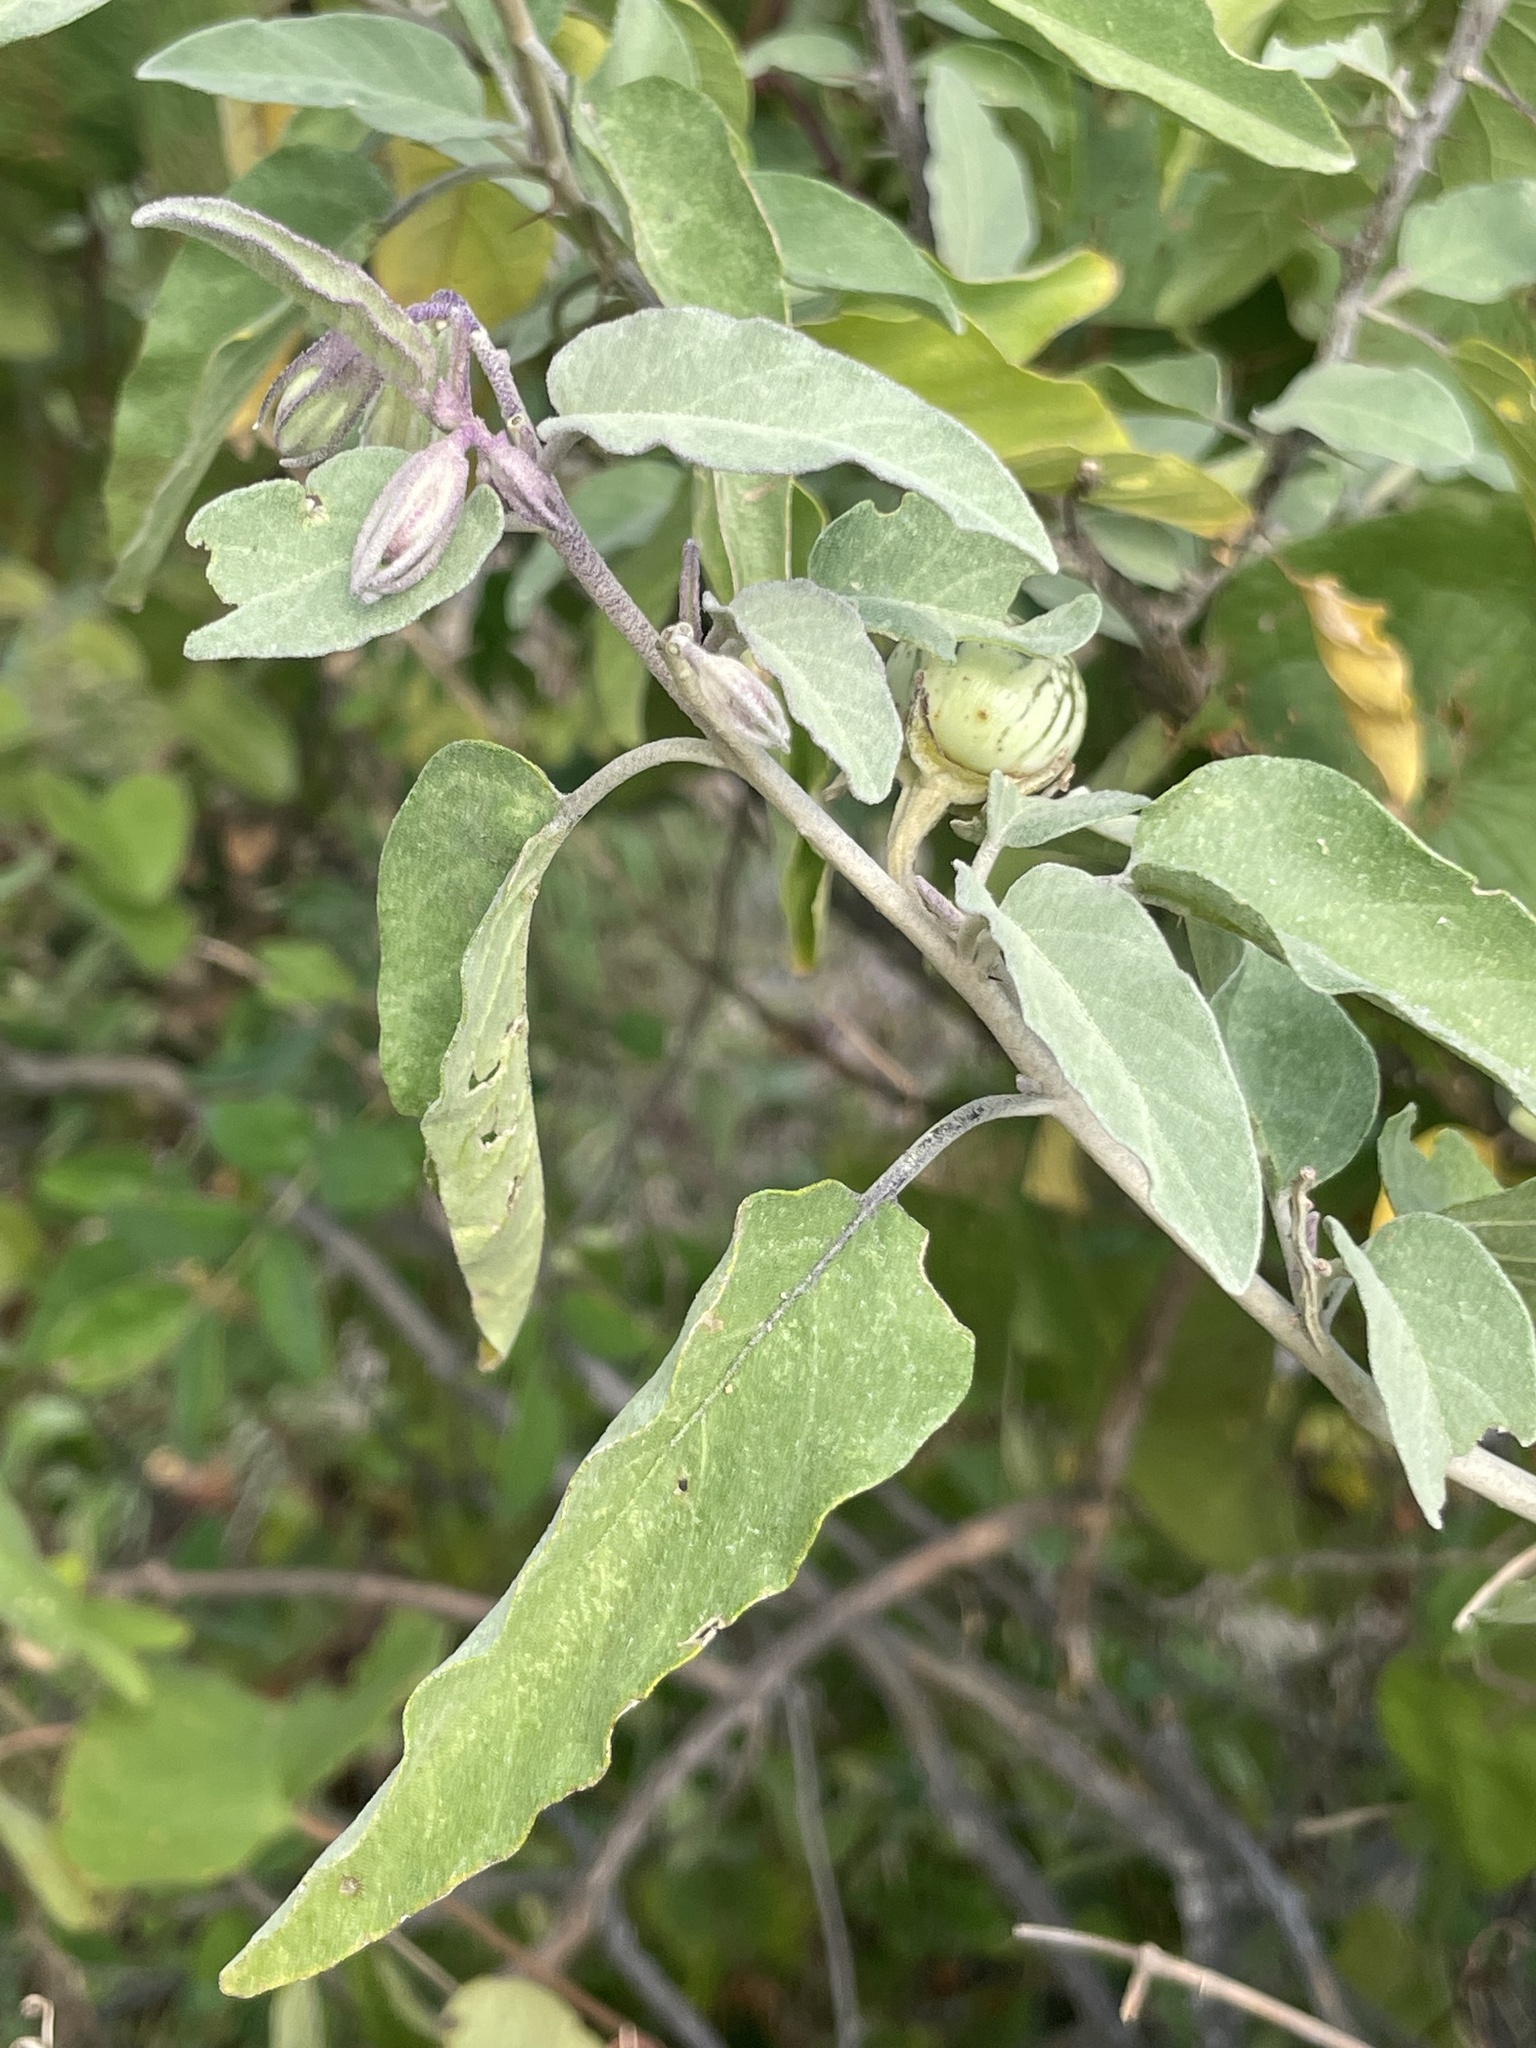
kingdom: Plantae
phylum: Tracheophyta
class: Magnoliopsida
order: Solanales
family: Solanaceae
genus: Solanum
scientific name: Solanum hindsianum
